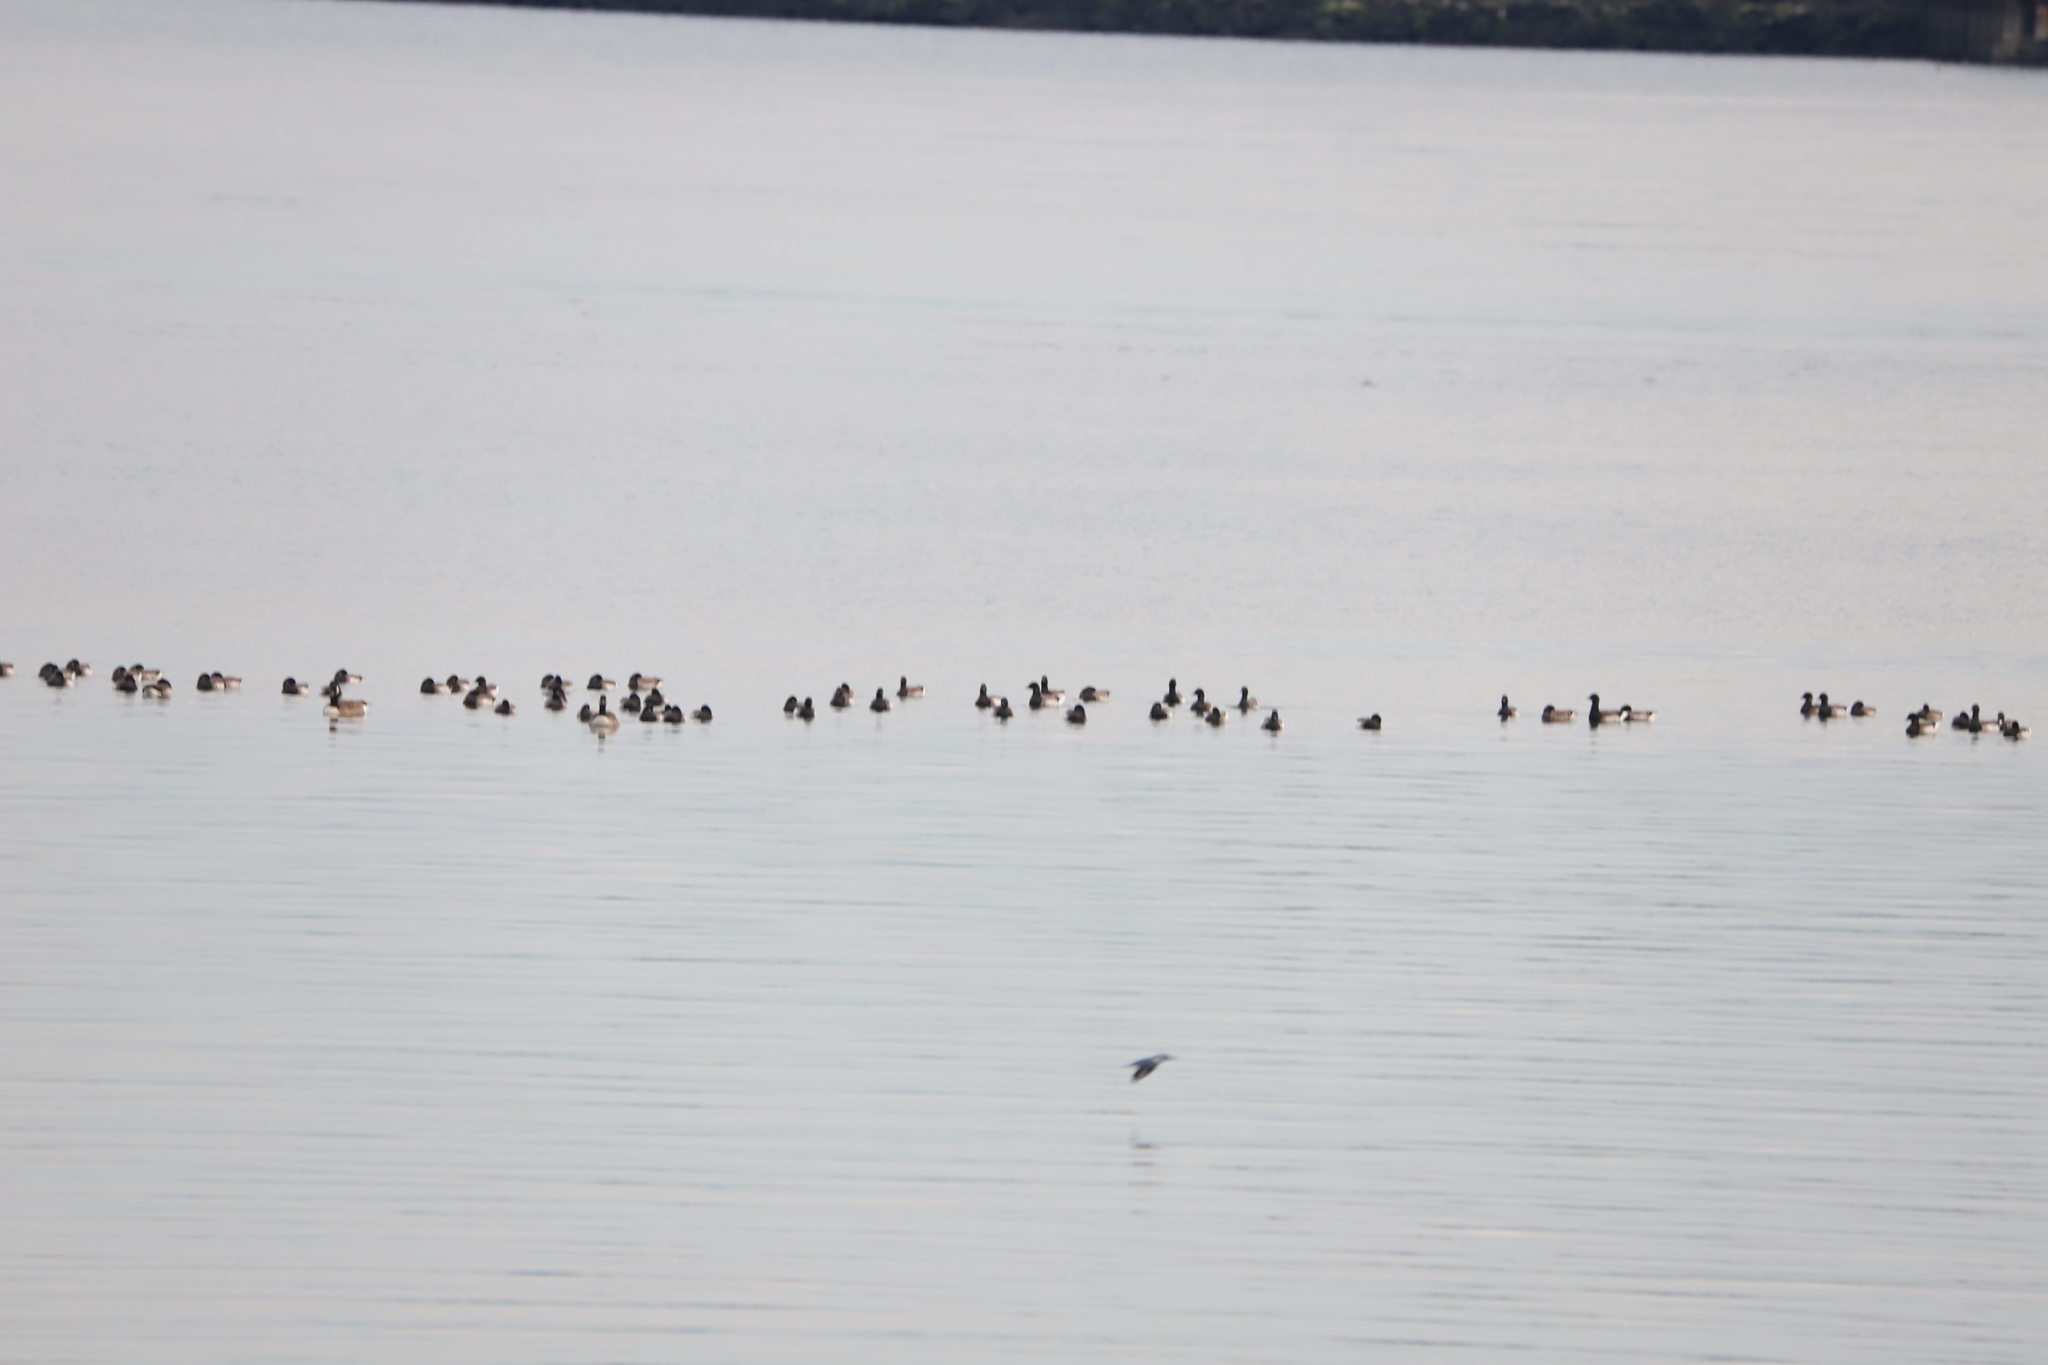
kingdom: Animalia
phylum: Chordata
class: Aves
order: Coraciiformes
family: Alcedinidae
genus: Megaceryle
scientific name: Megaceryle alcyon
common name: Belted kingfisher
